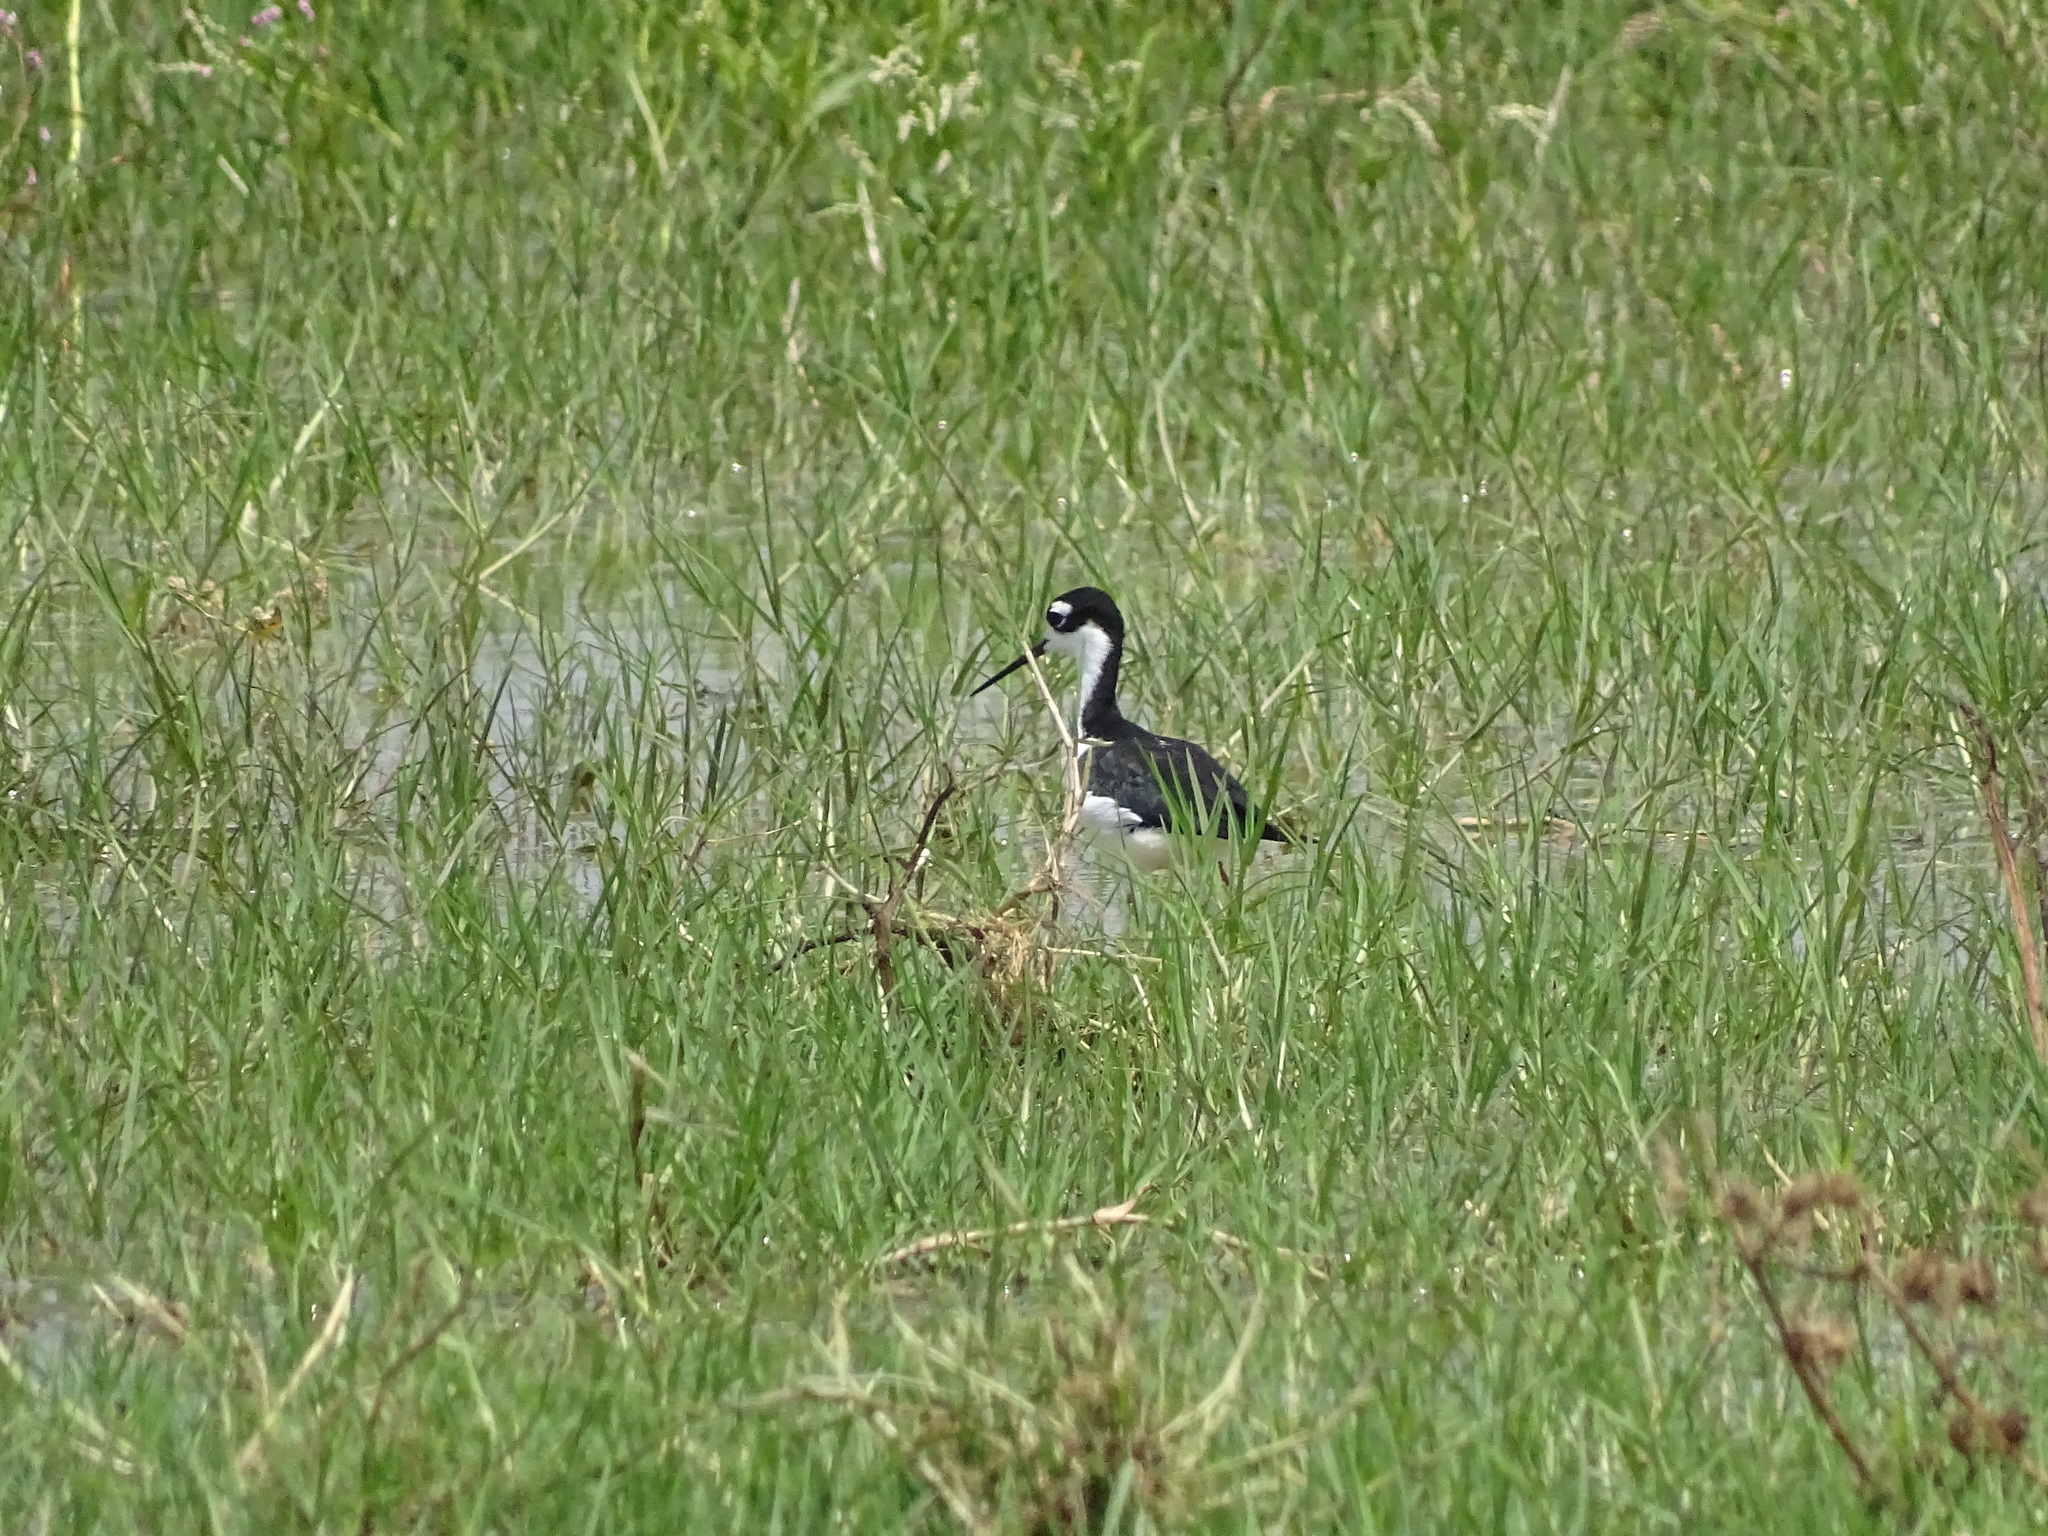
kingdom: Animalia
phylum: Chordata
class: Aves
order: Charadriiformes
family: Recurvirostridae
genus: Himantopus
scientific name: Himantopus mexicanus
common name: Black-necked stilt
